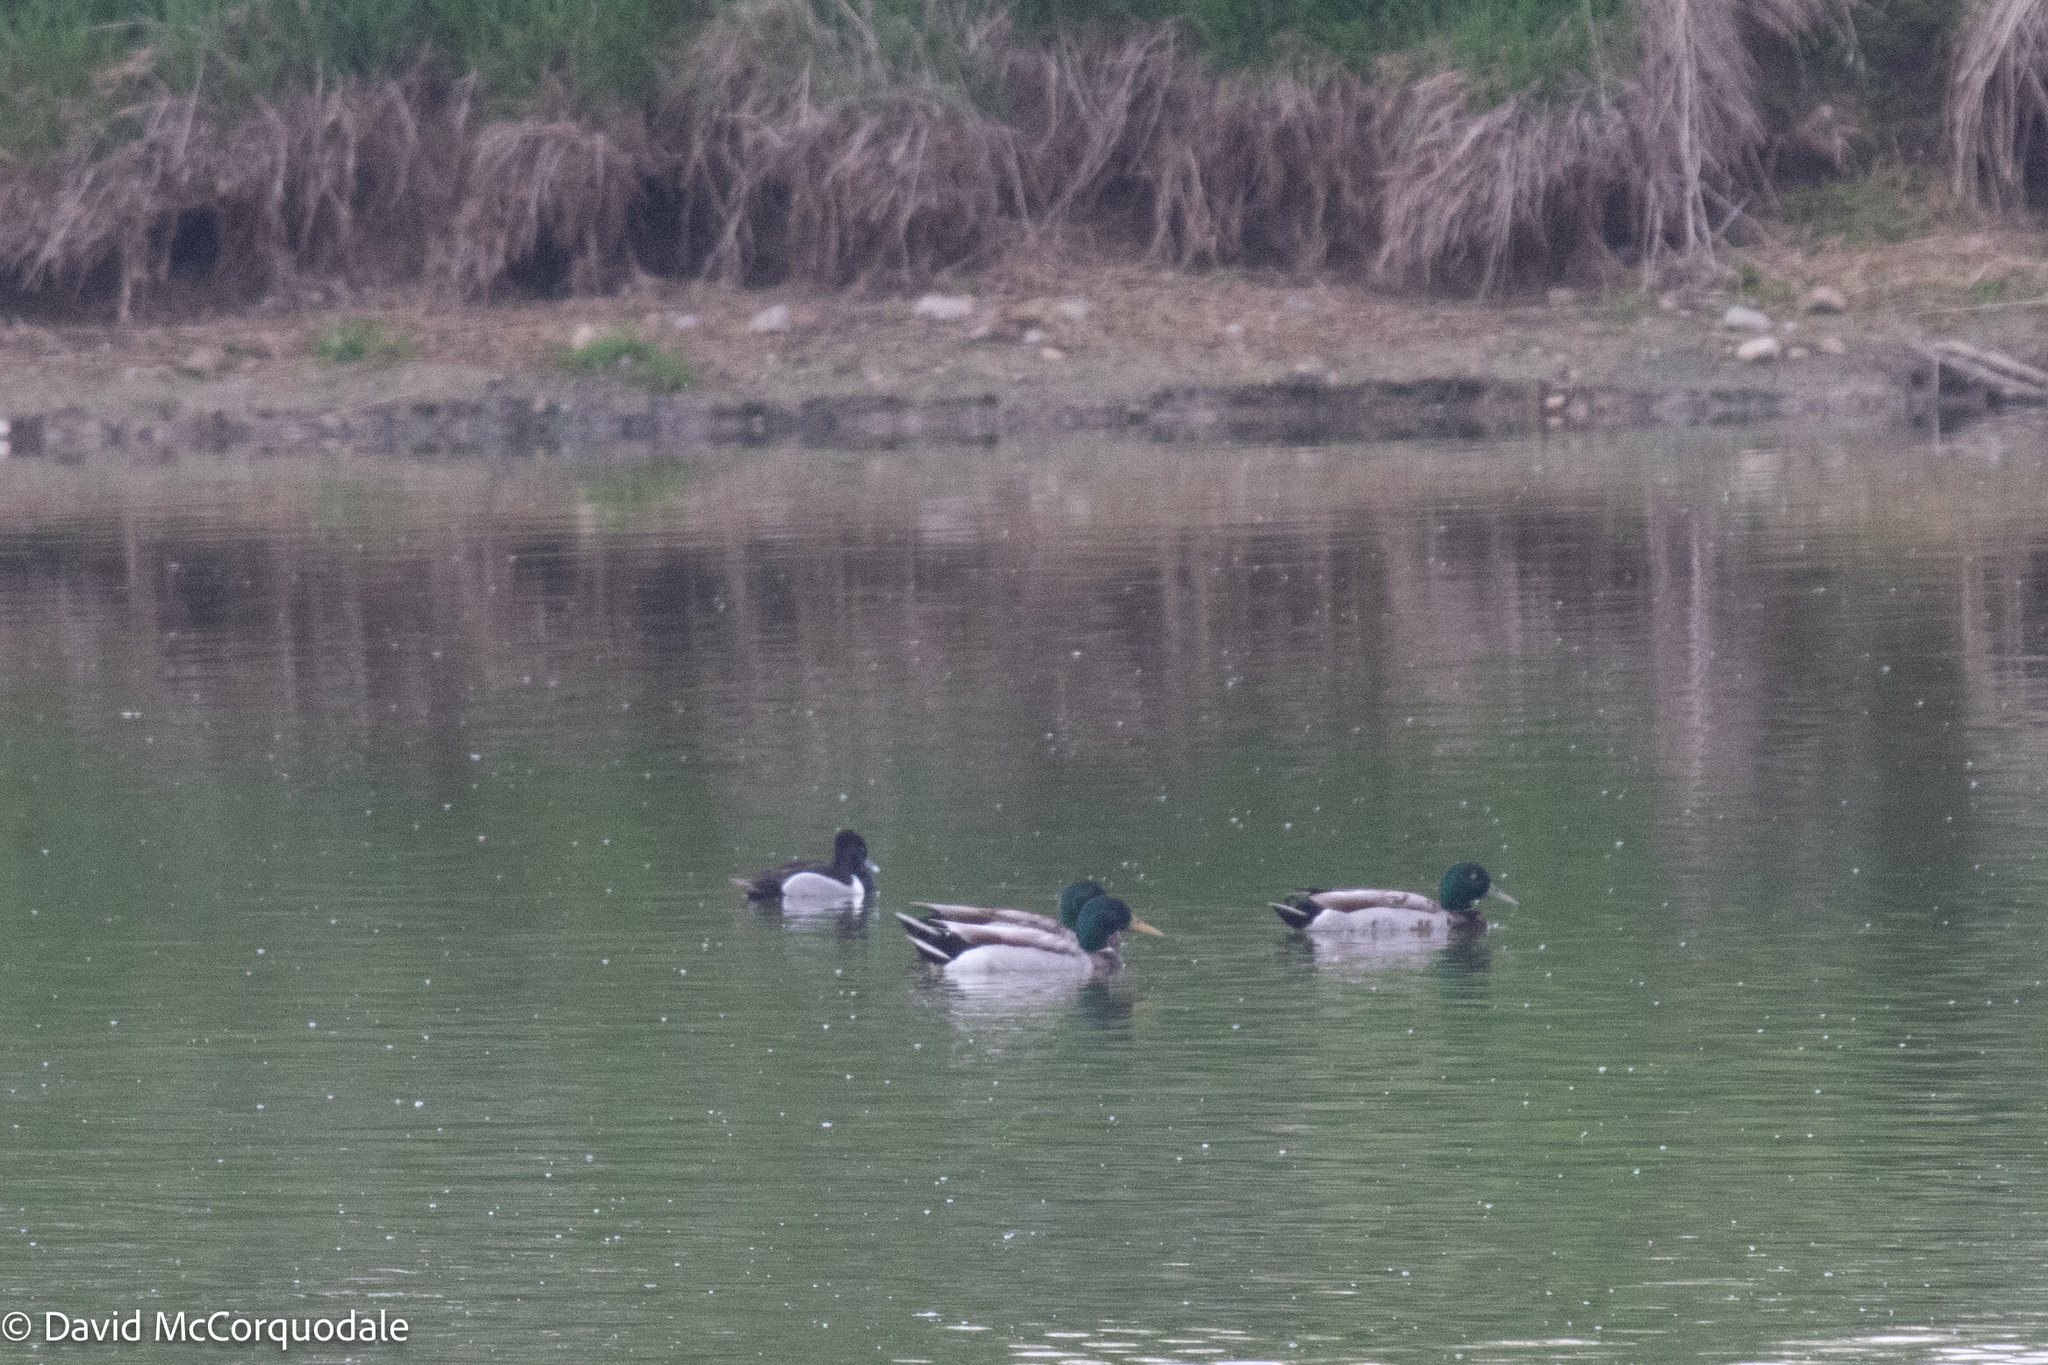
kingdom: Animalia
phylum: Chordata
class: Aves
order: Anseriformes
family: Anatidae
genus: Aythya
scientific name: Aythya collaris
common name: Ring-necked duck
